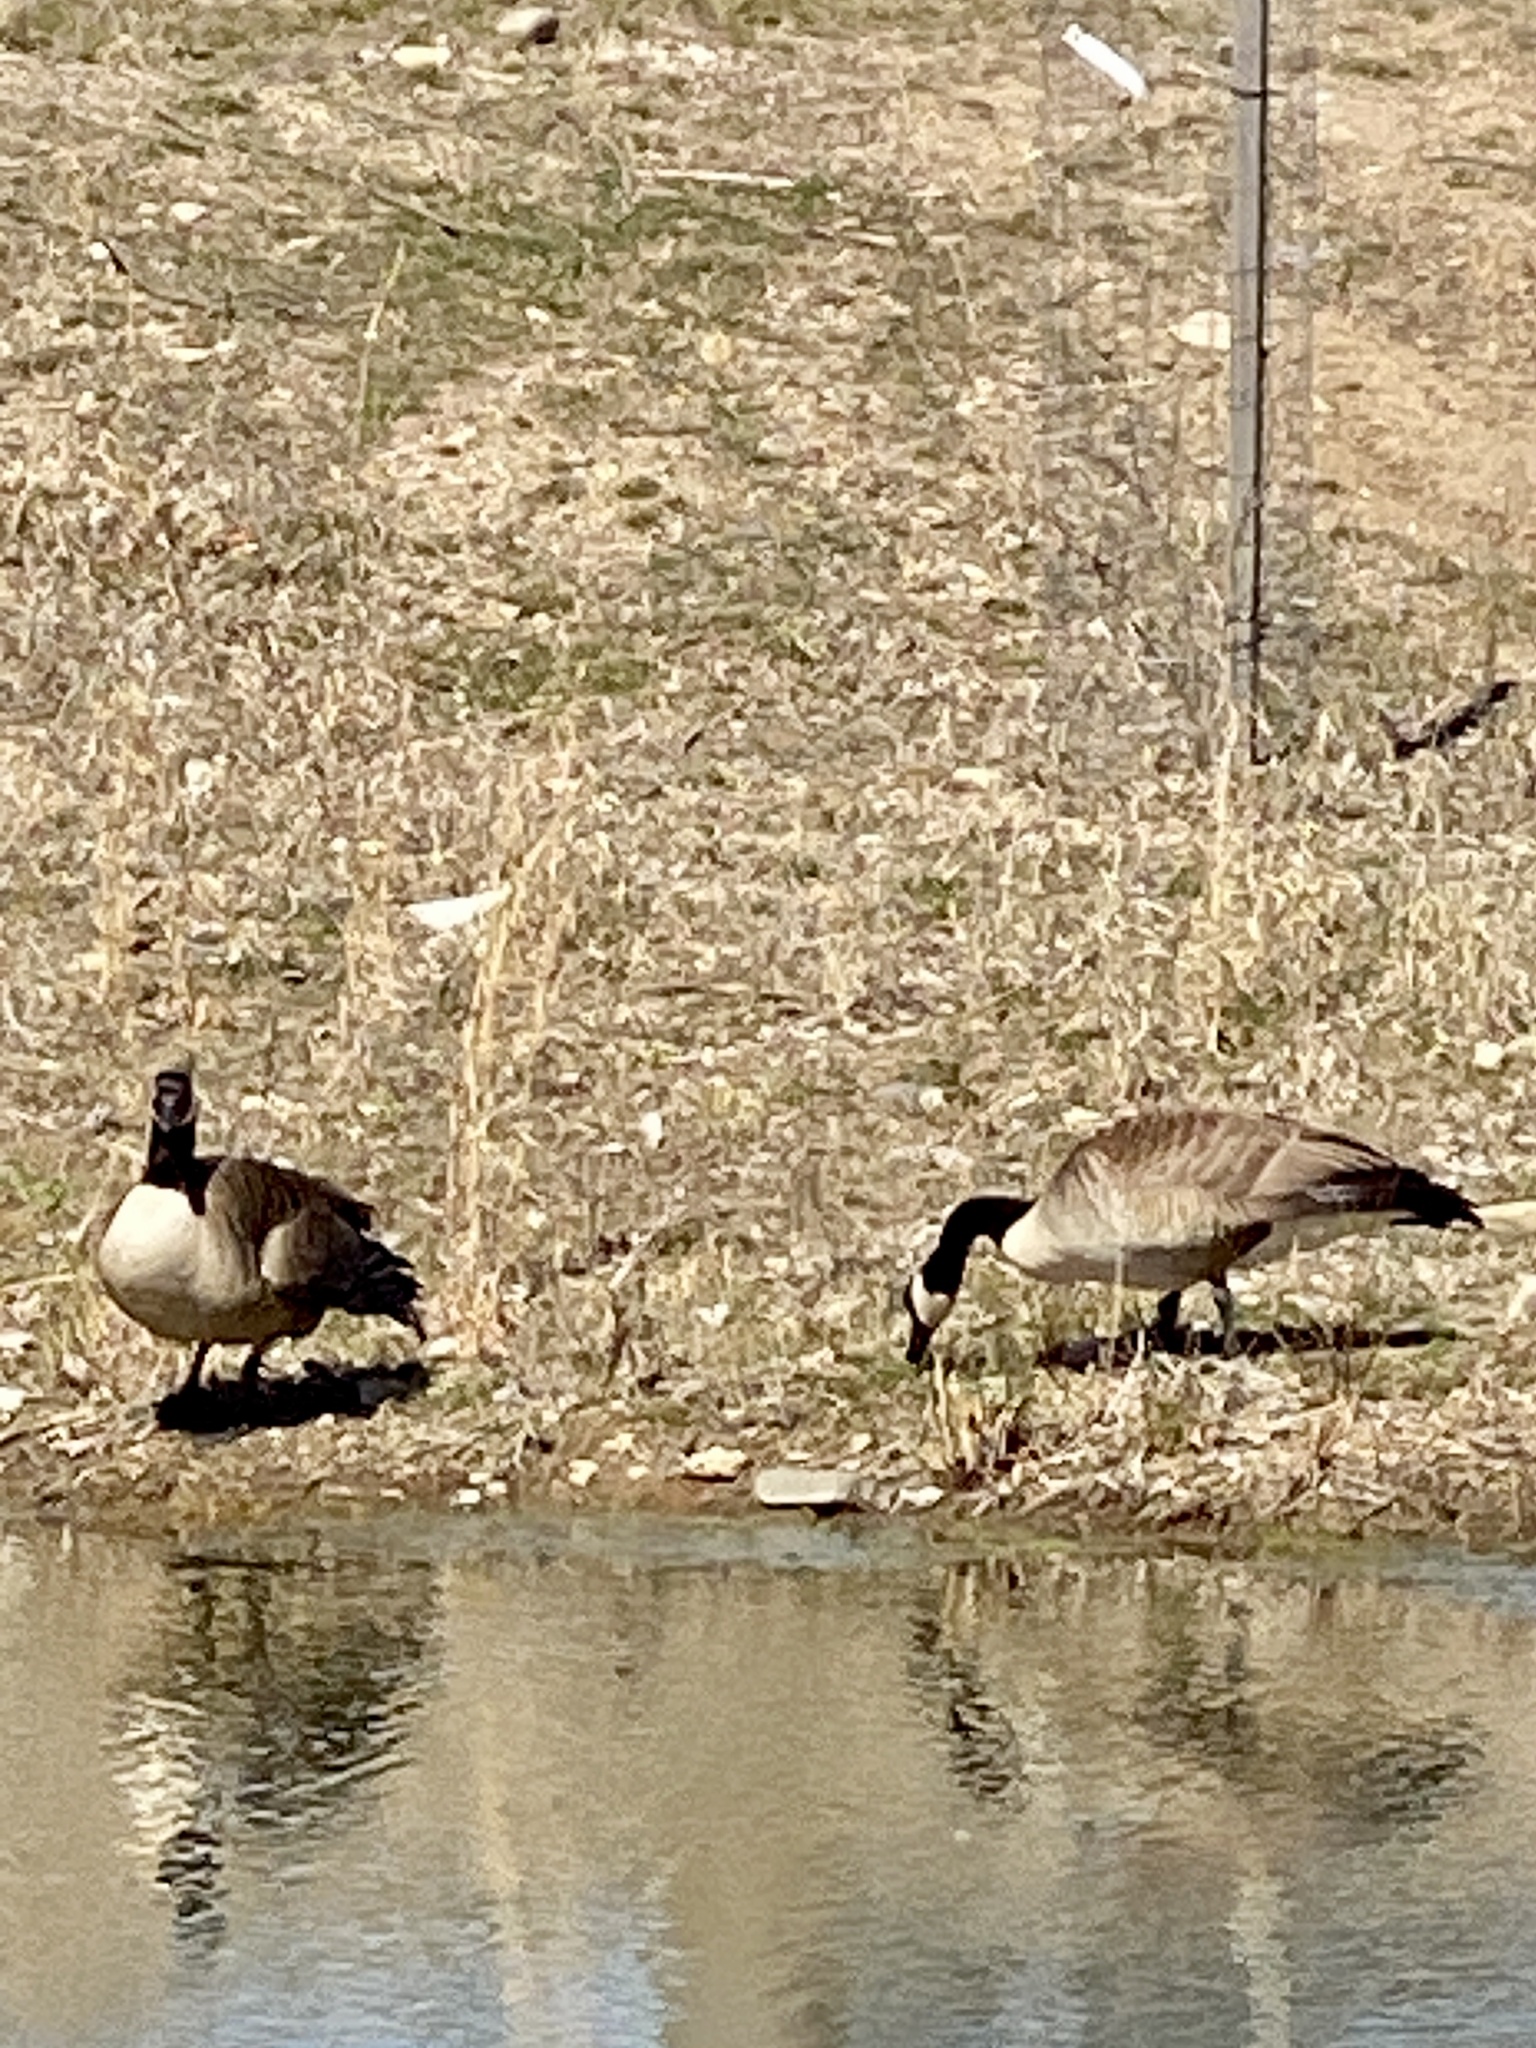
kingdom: Animalia
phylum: Chordata
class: Aves
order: Anseriformes
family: Anatidae
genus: Branta
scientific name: Branta canadensis
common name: Canada goose
